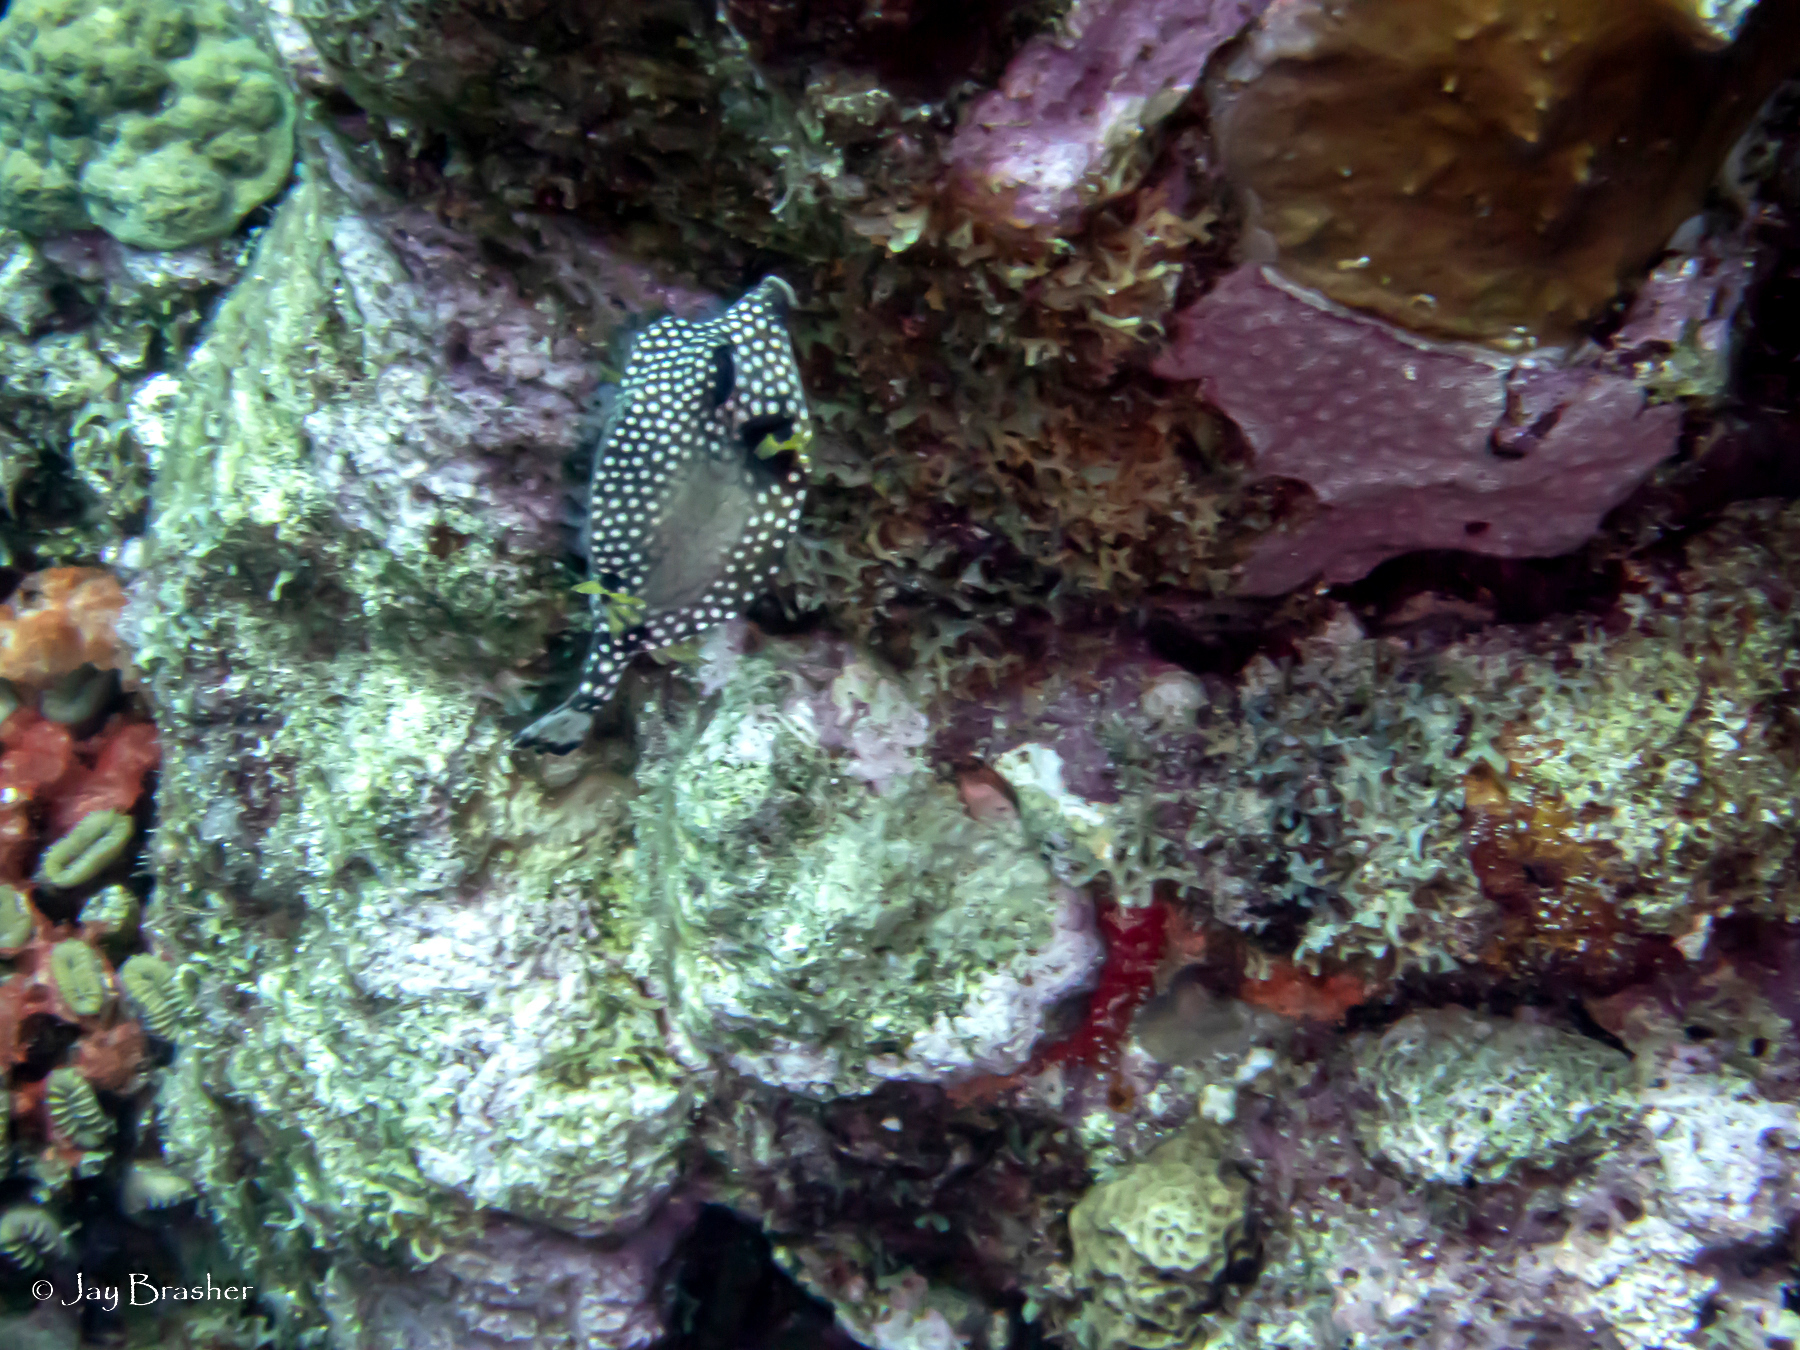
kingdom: Animalia
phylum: Chordata
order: Tetraodontiformes
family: Ostraciidae
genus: Lactophrys
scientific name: Lactophrys triqueter
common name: Smooth trunkfish
